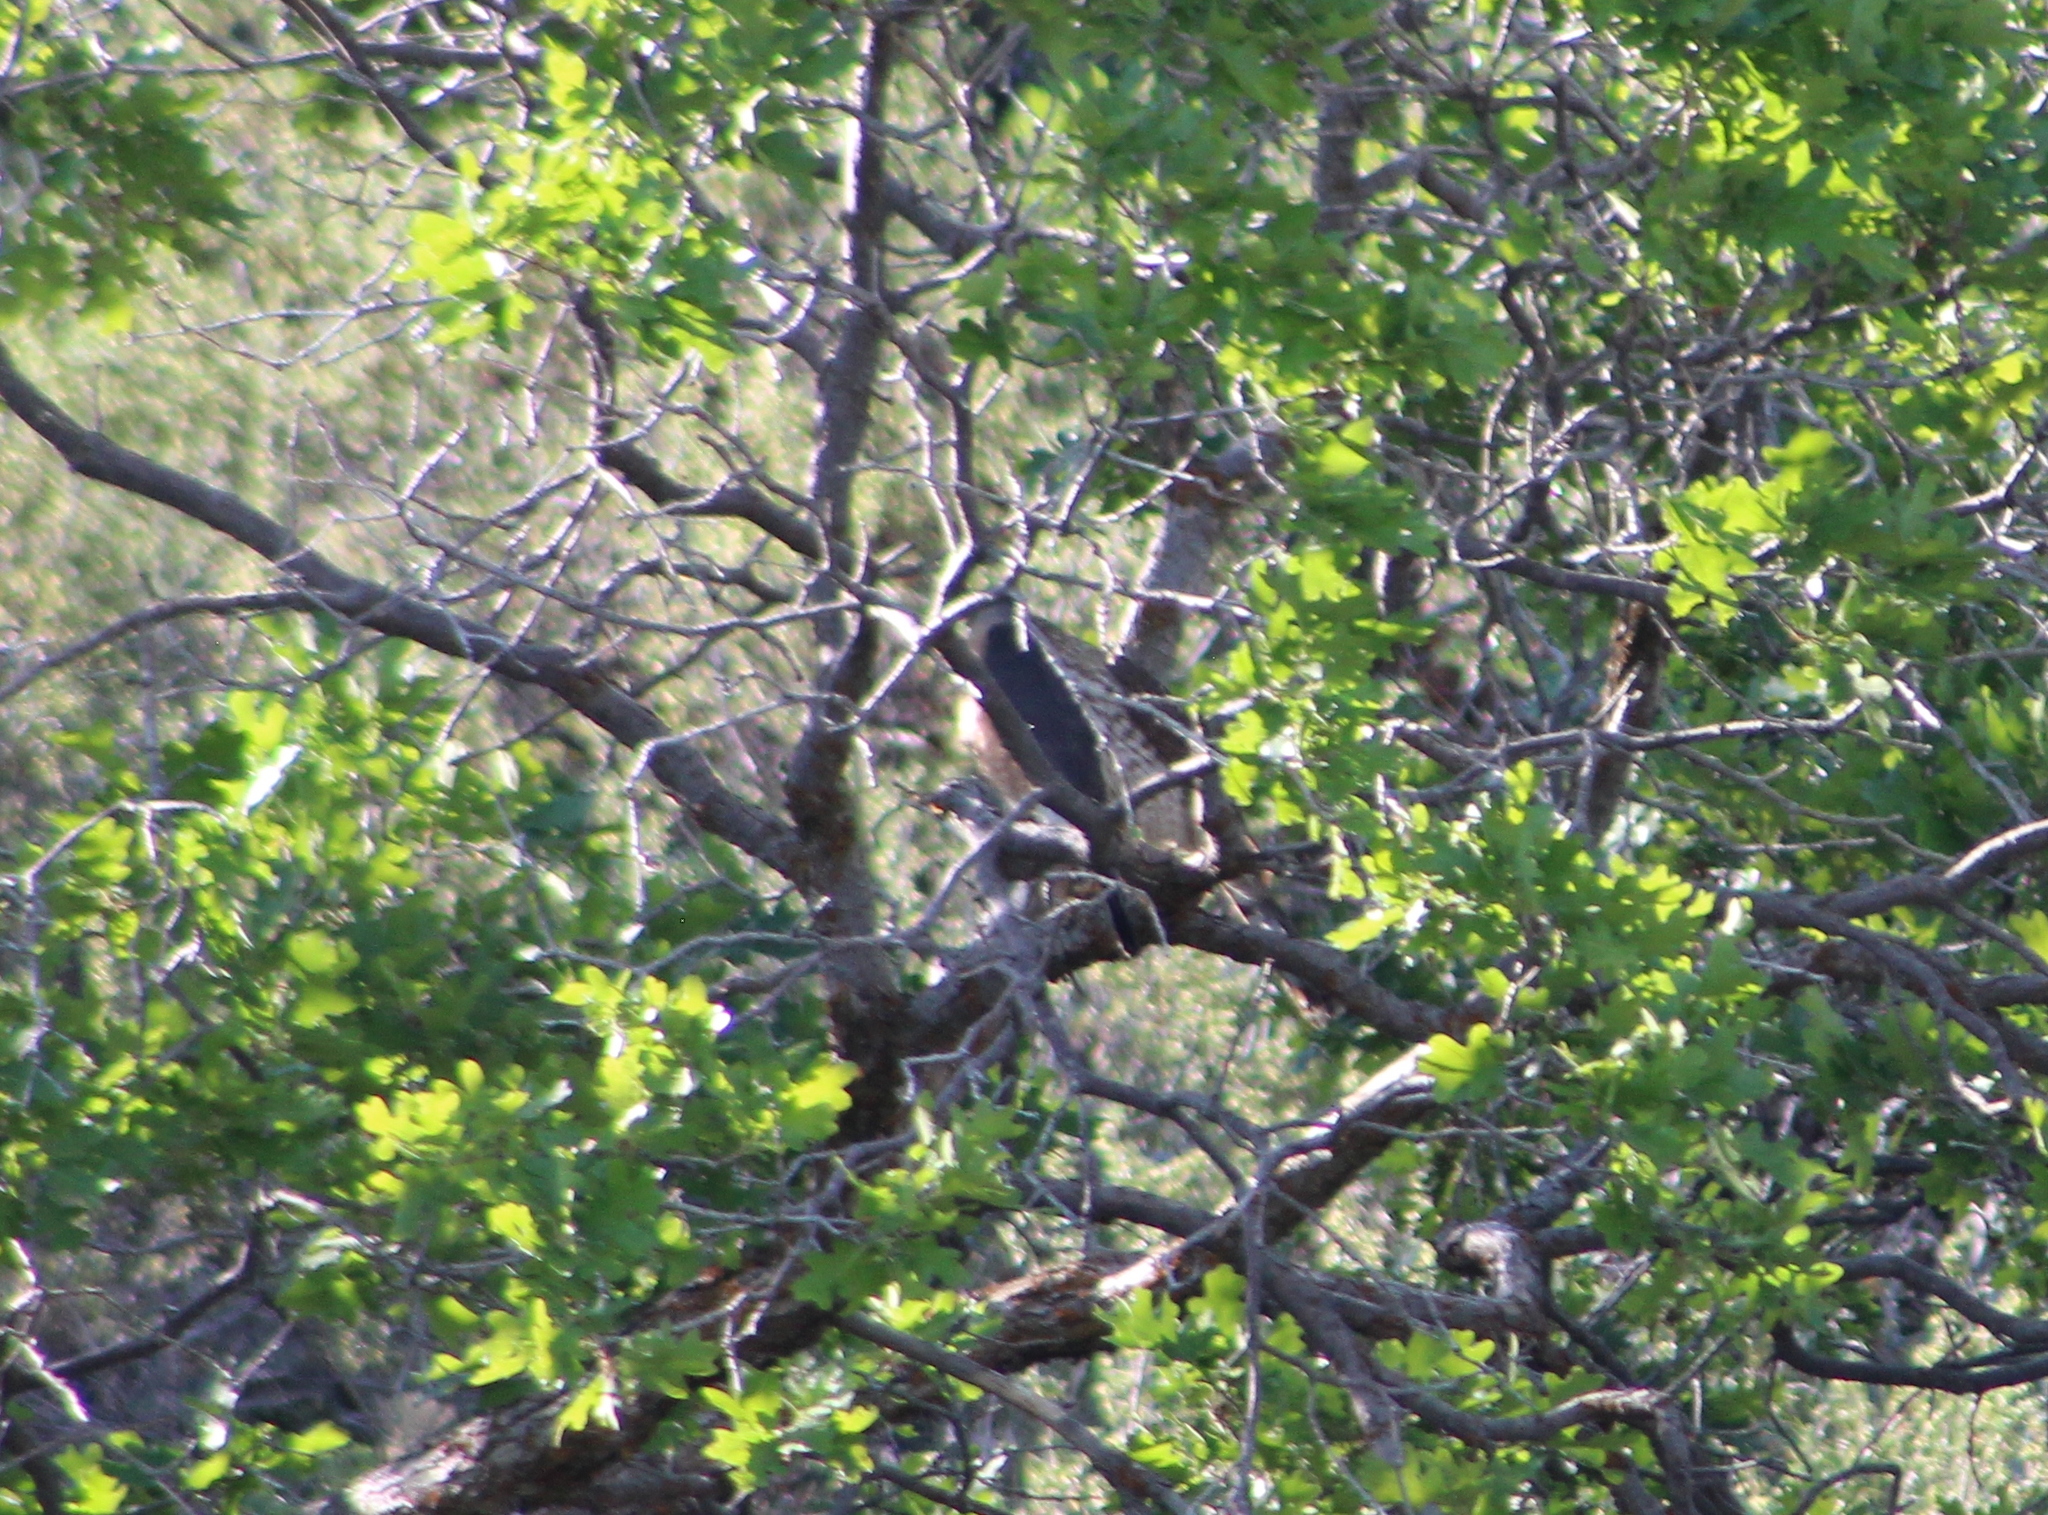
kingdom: Animalia
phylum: Chordata
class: Aves
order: Accipitriformes
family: Accipitridae
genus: Accipiter
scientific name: Accipiter cooperii
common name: Cooper's hawk
